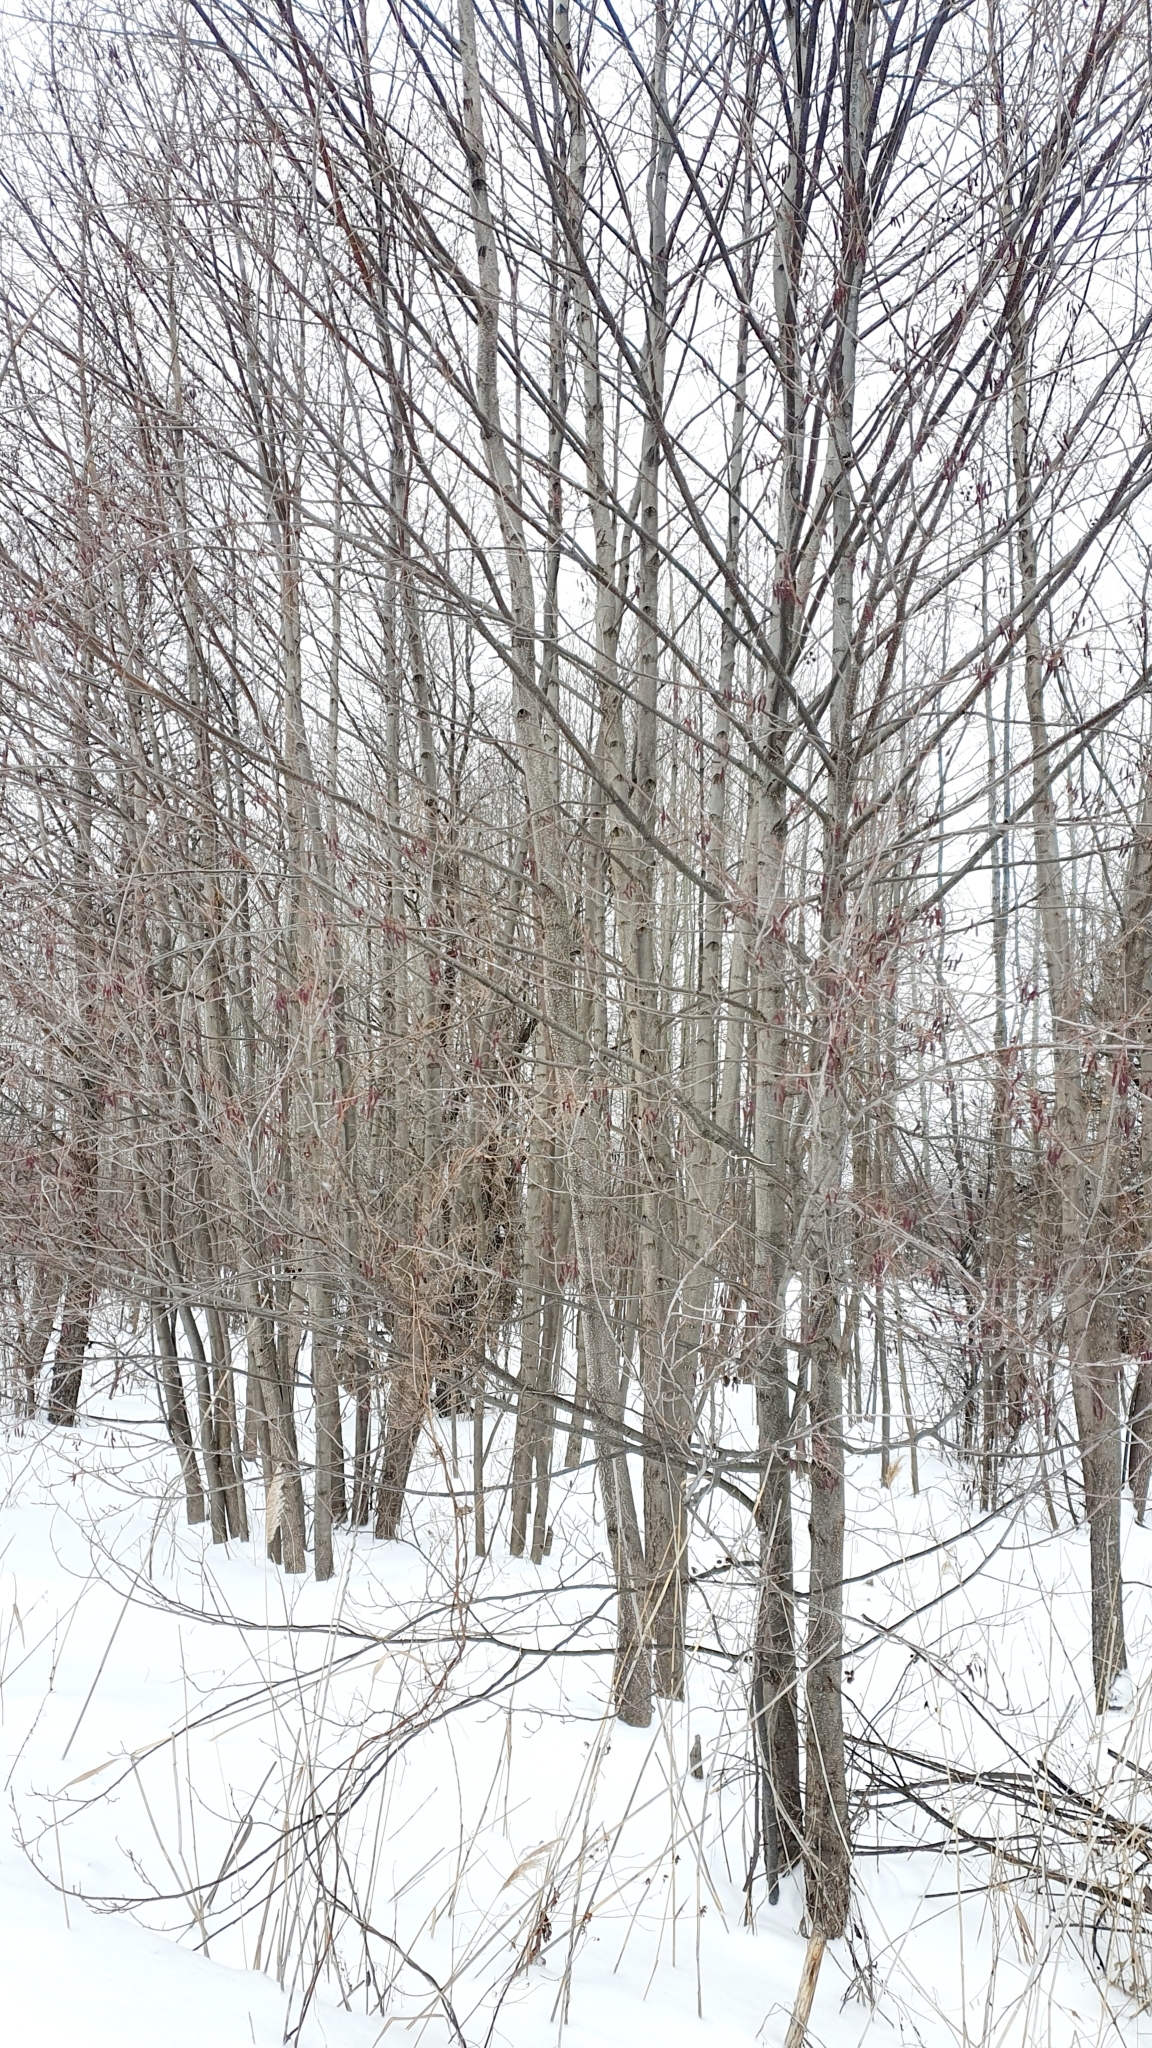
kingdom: Plantae
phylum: Tracheophyta
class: Magnoliopsida
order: Fagales
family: Betulaceae
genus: Alnus
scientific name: Alnus glutinosa
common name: Black alder
